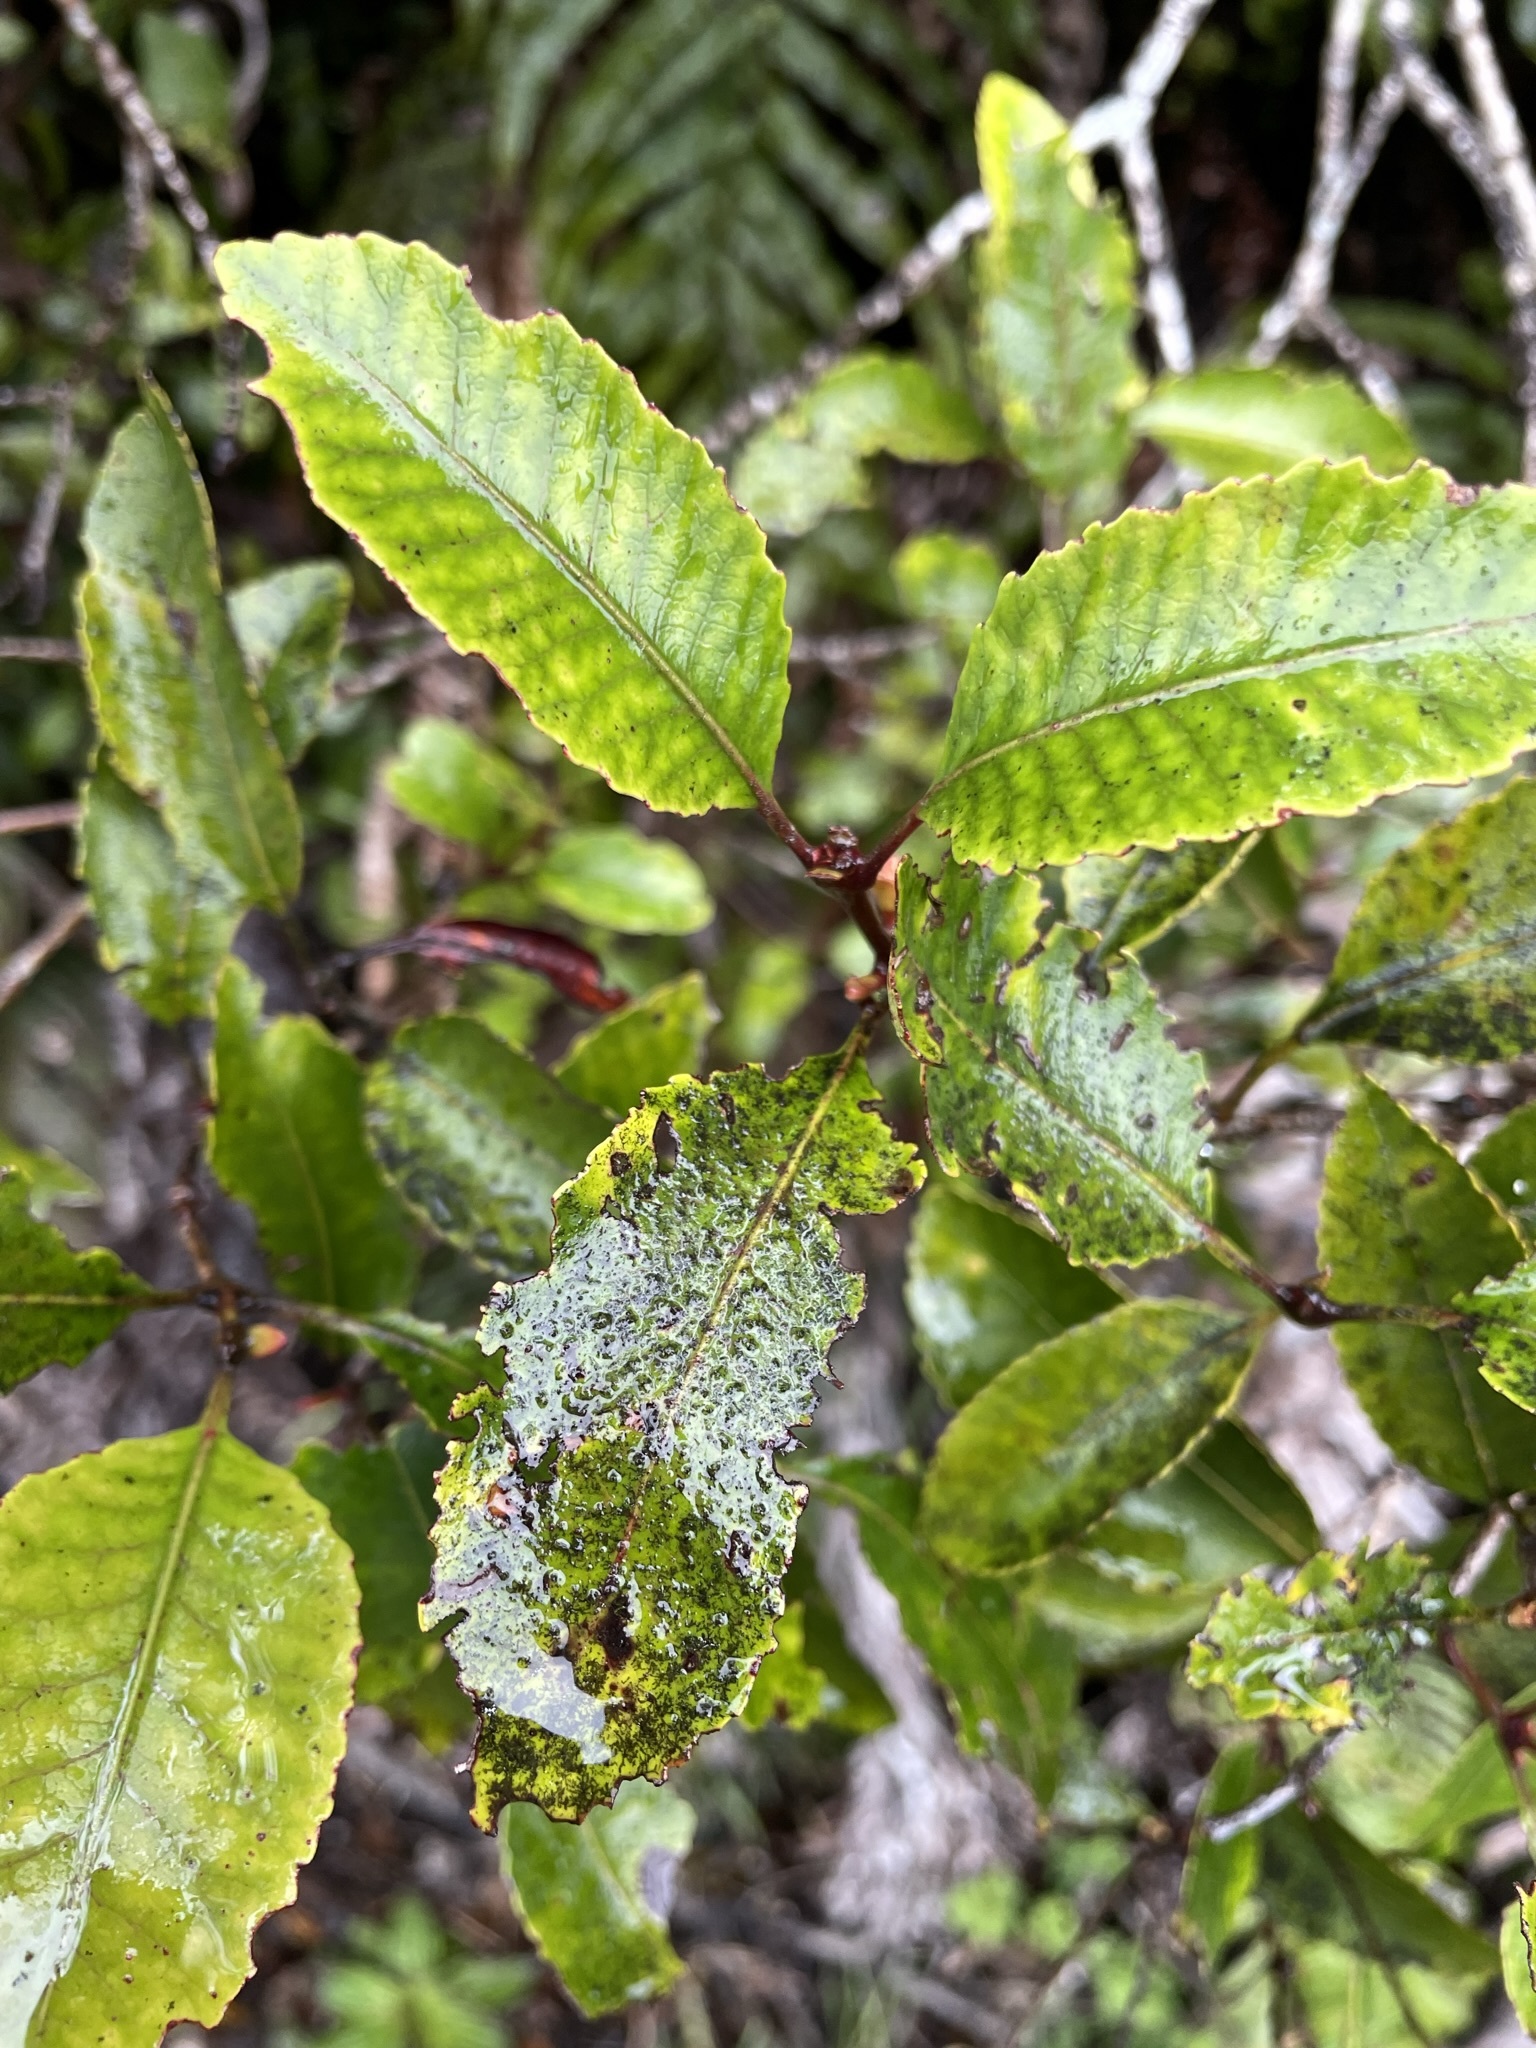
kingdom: Plantae
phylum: Tracheophyta
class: Magnoliopsida
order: Oxalidales
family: Cunoniaceae
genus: Pterophylla
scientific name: Pterophylla racemosa
